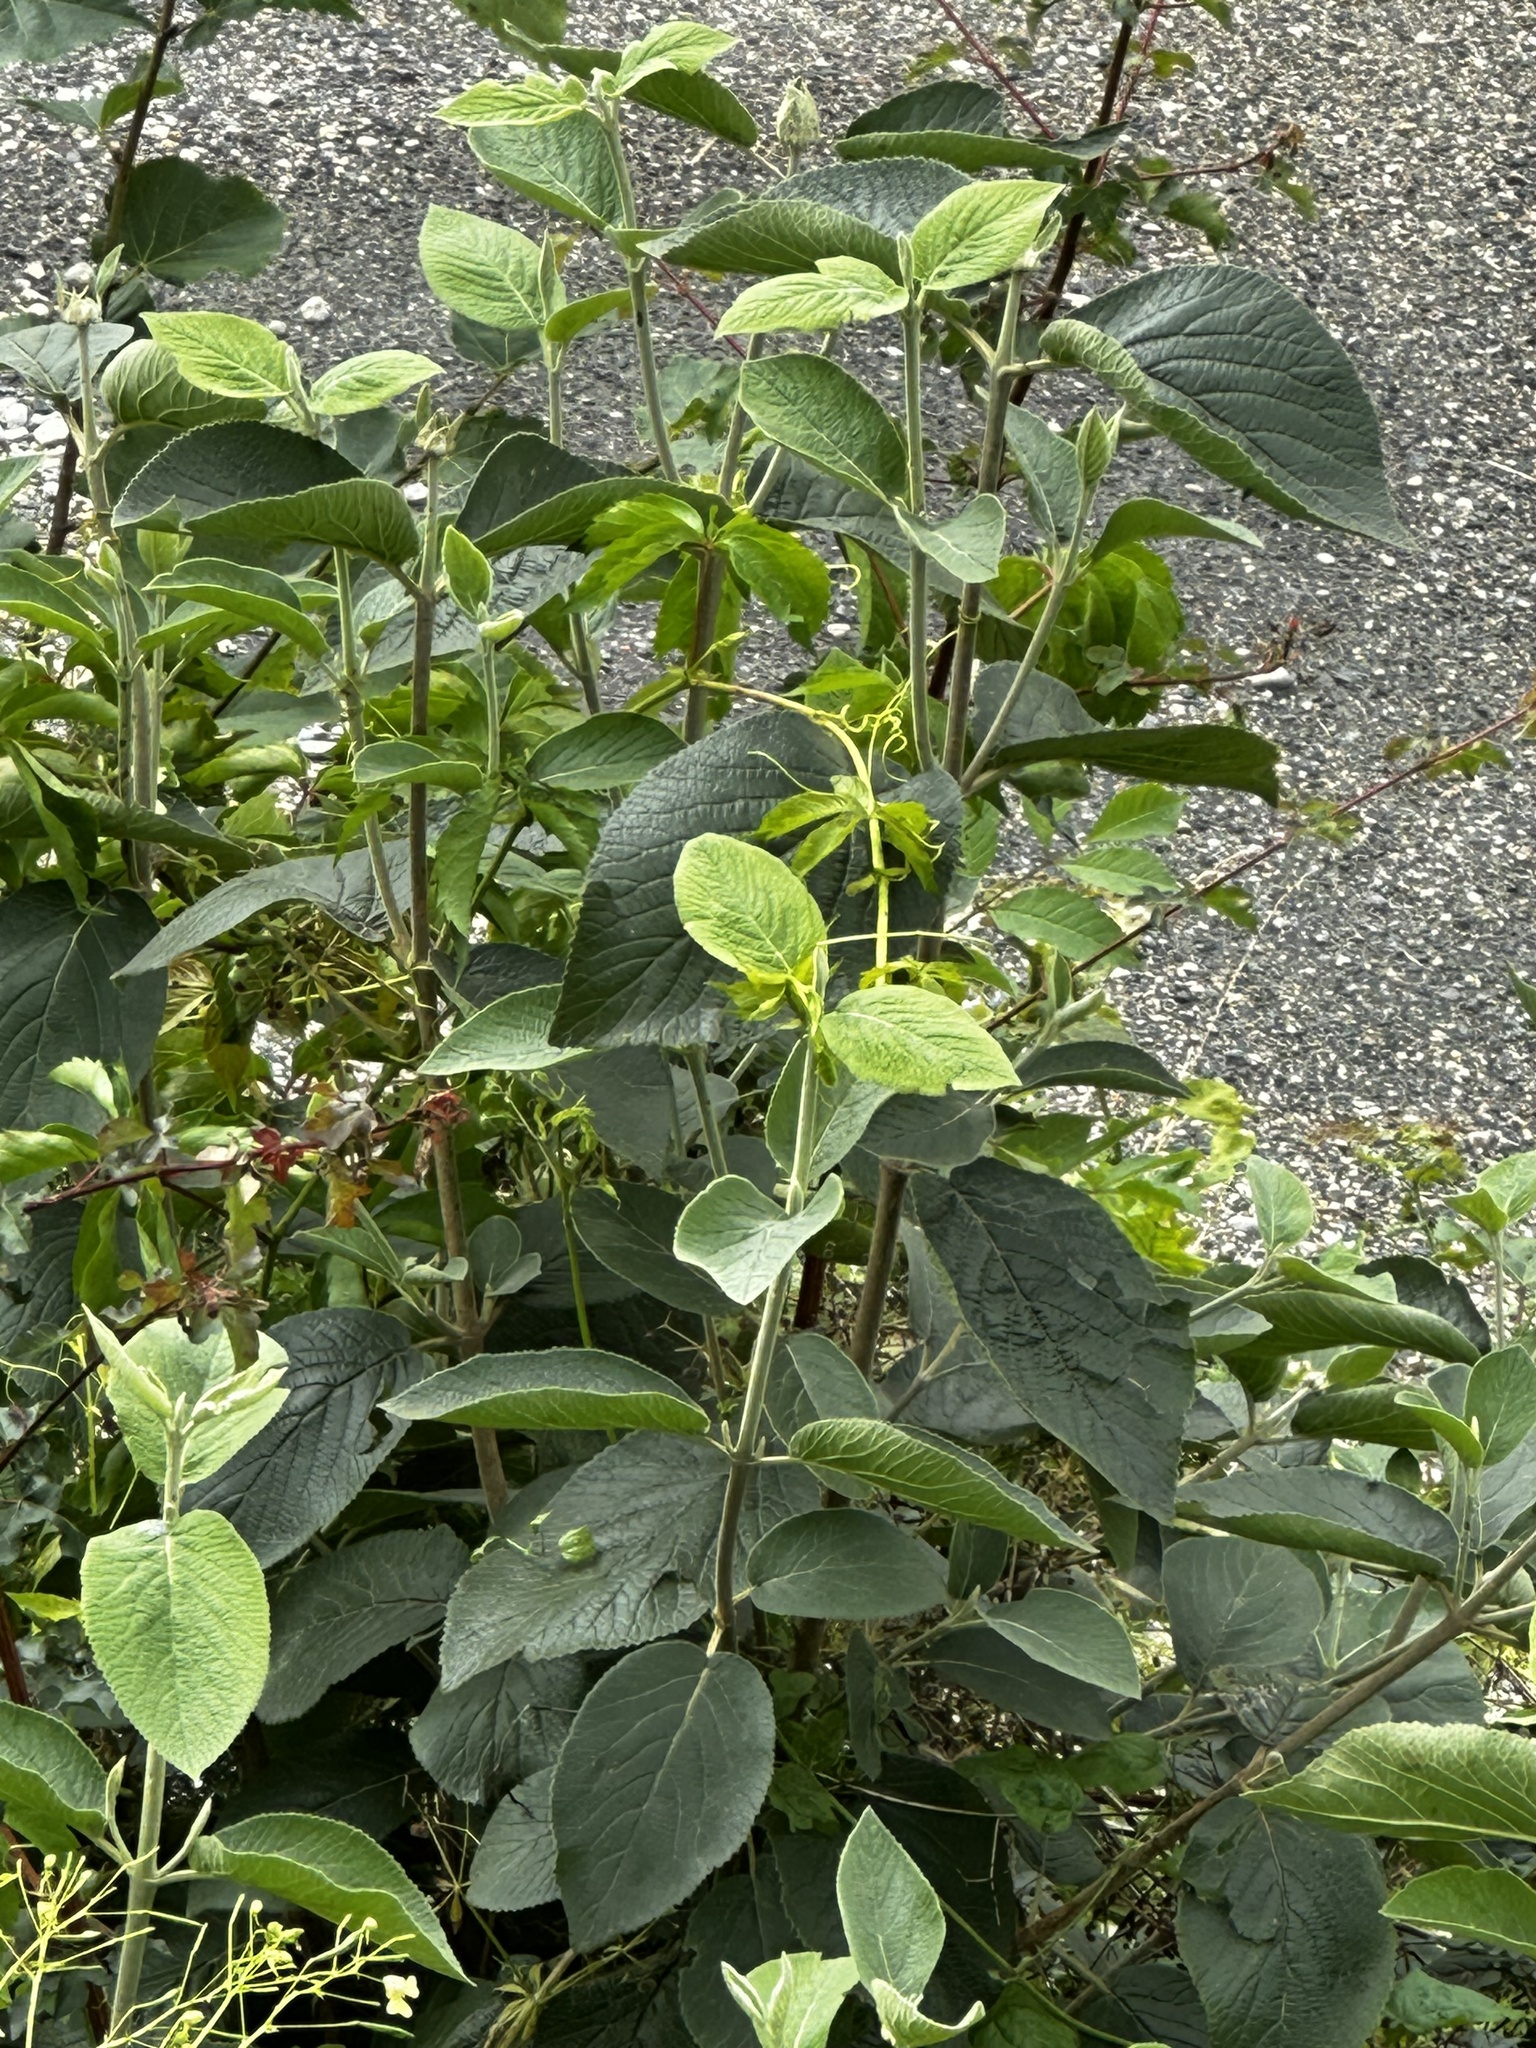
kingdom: Plantae
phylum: Tracheophyta
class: Magnoliopsida
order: Dipsacales
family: Viburnaceae
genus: Viburnum
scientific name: Viburnum lantana
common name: Wayfaring tree
